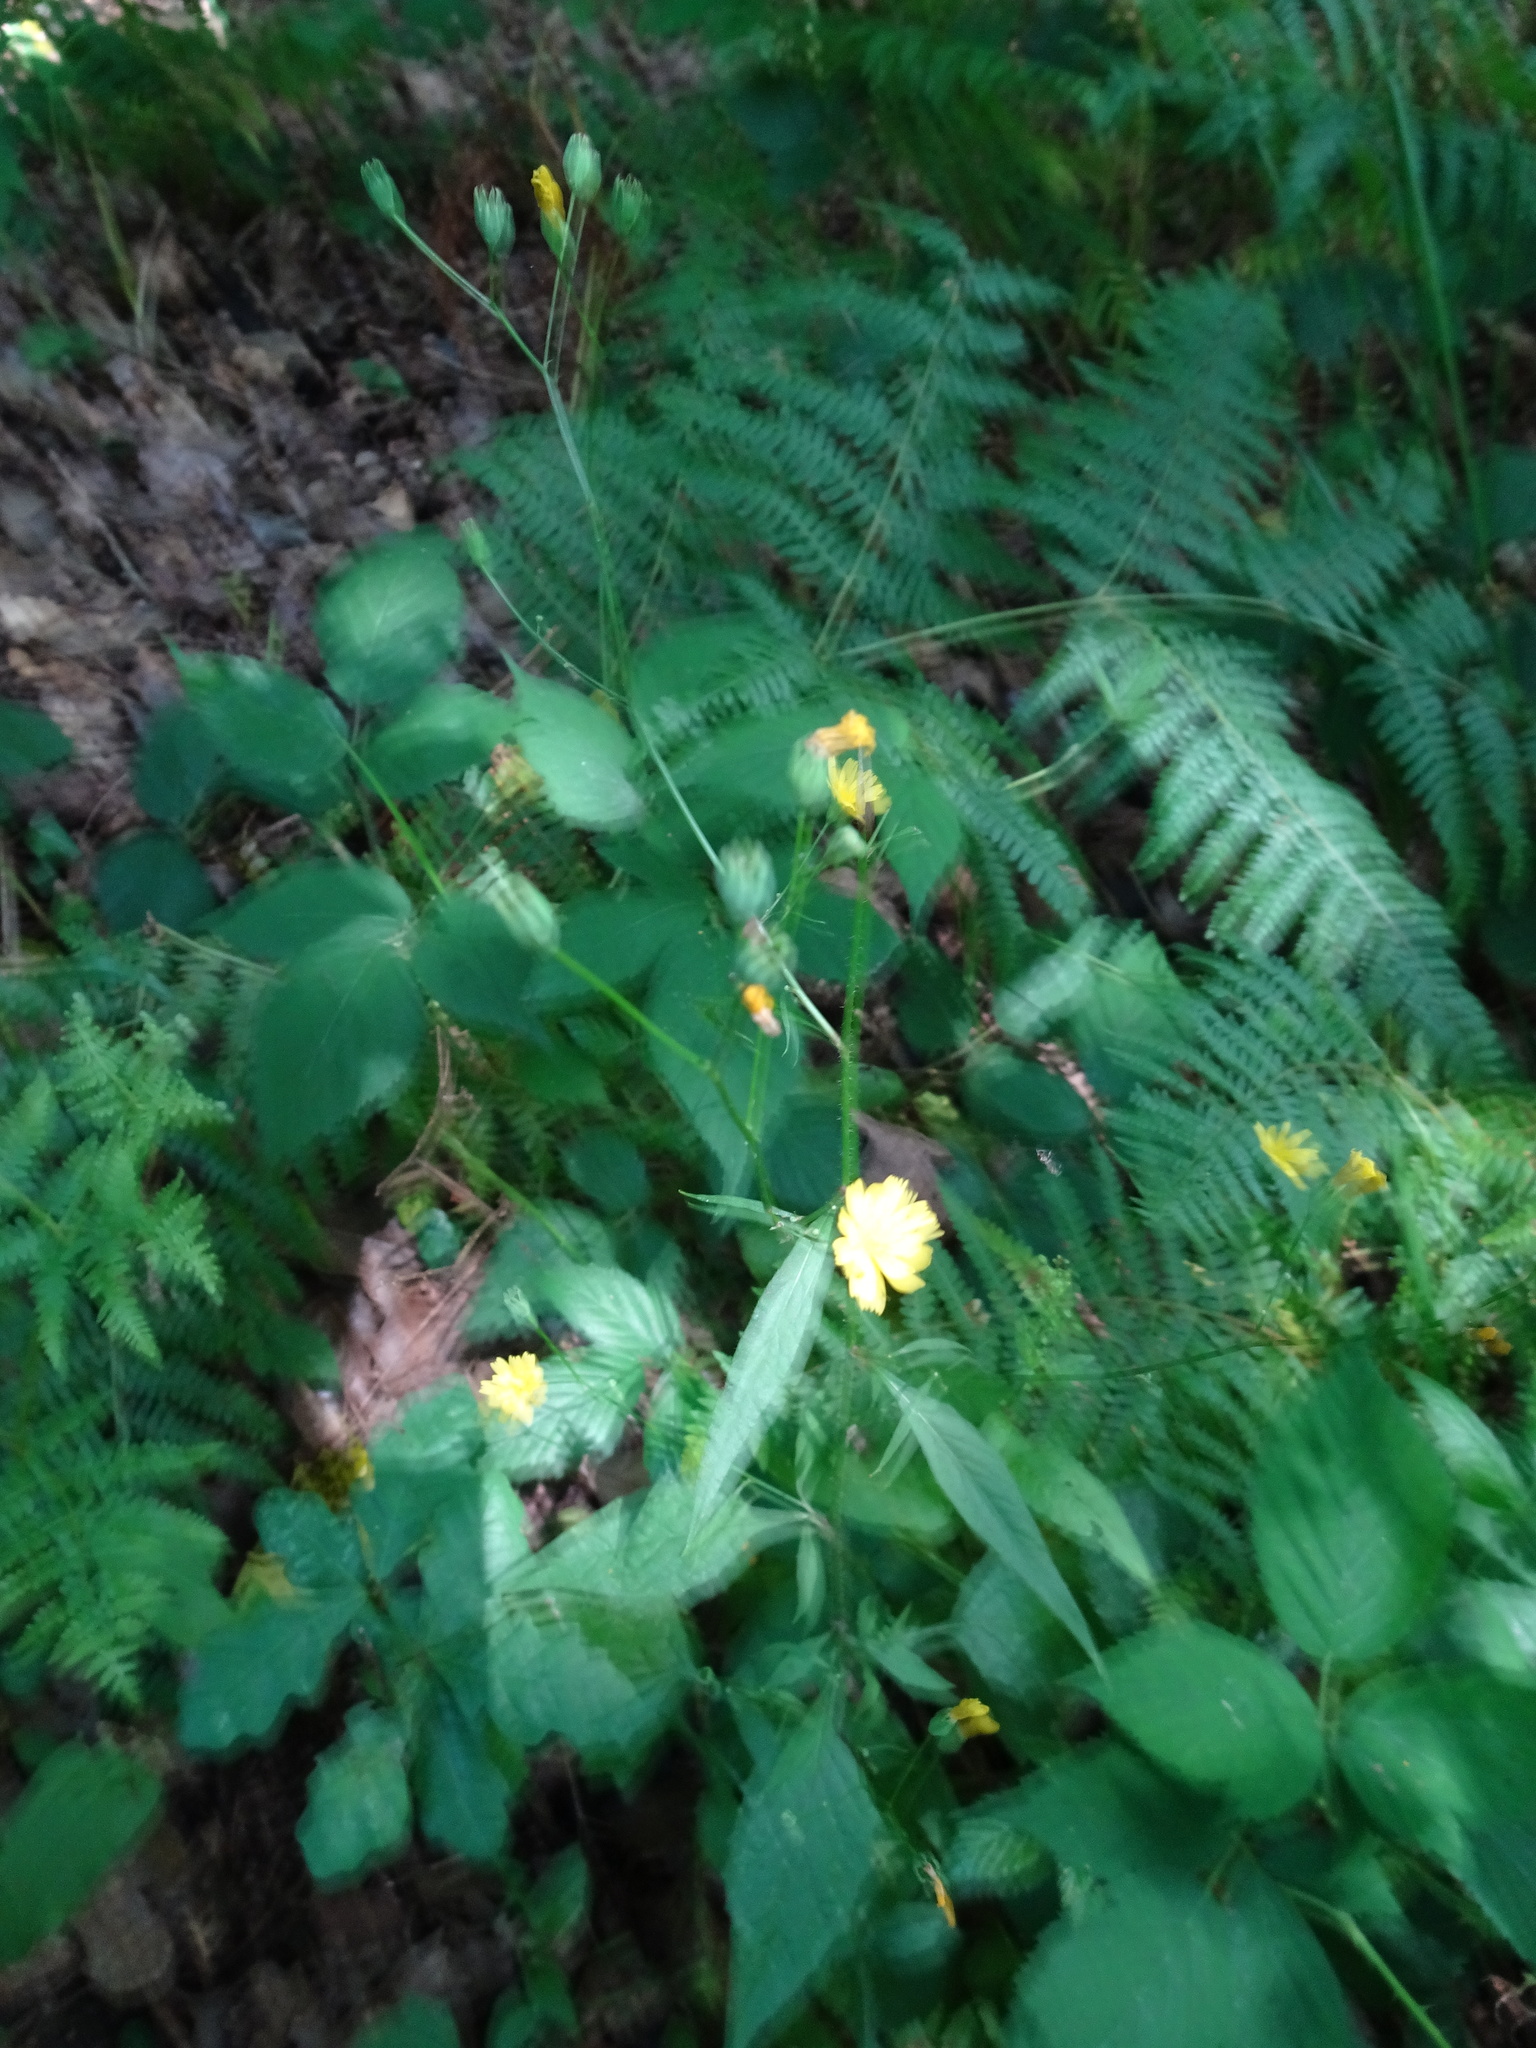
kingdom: Plantae
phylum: Tracheophyta
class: Magnoliopsida
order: Asterales
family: Asteraceae
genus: Lapsana
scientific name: Lapsana communis
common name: Nipplewort
